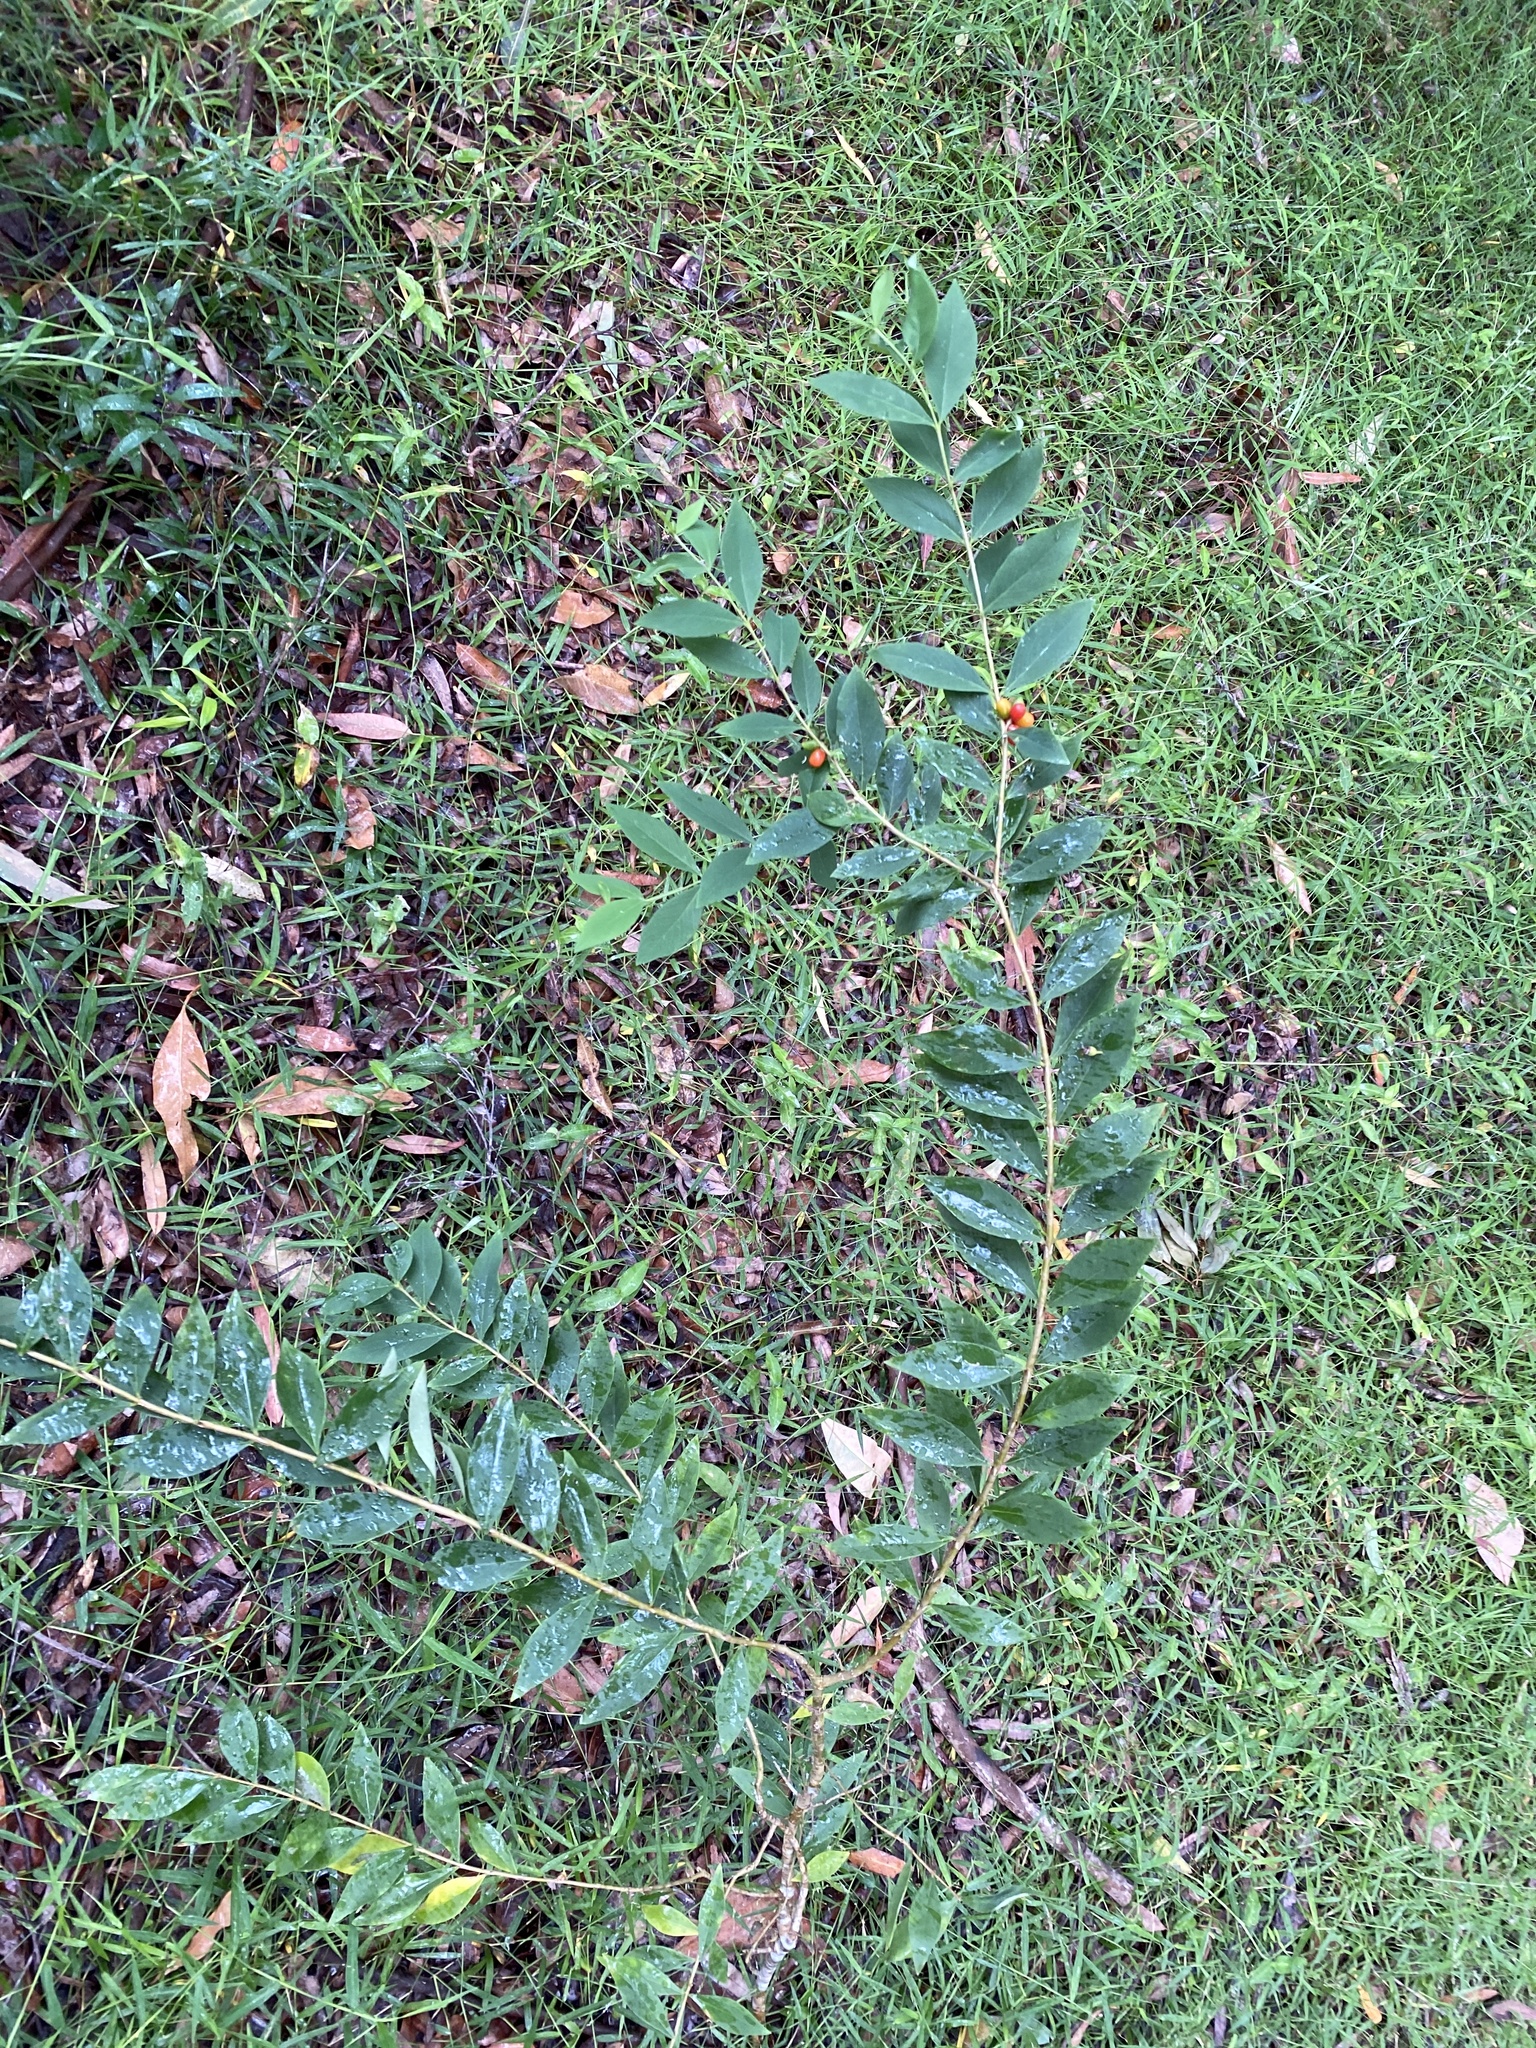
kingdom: Plantae
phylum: Tracheophyta
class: Magnoliopsida
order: Malvales
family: Thymelaeaceae
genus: Wikstroemia
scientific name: Wikstroemia indica
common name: Tiebush
